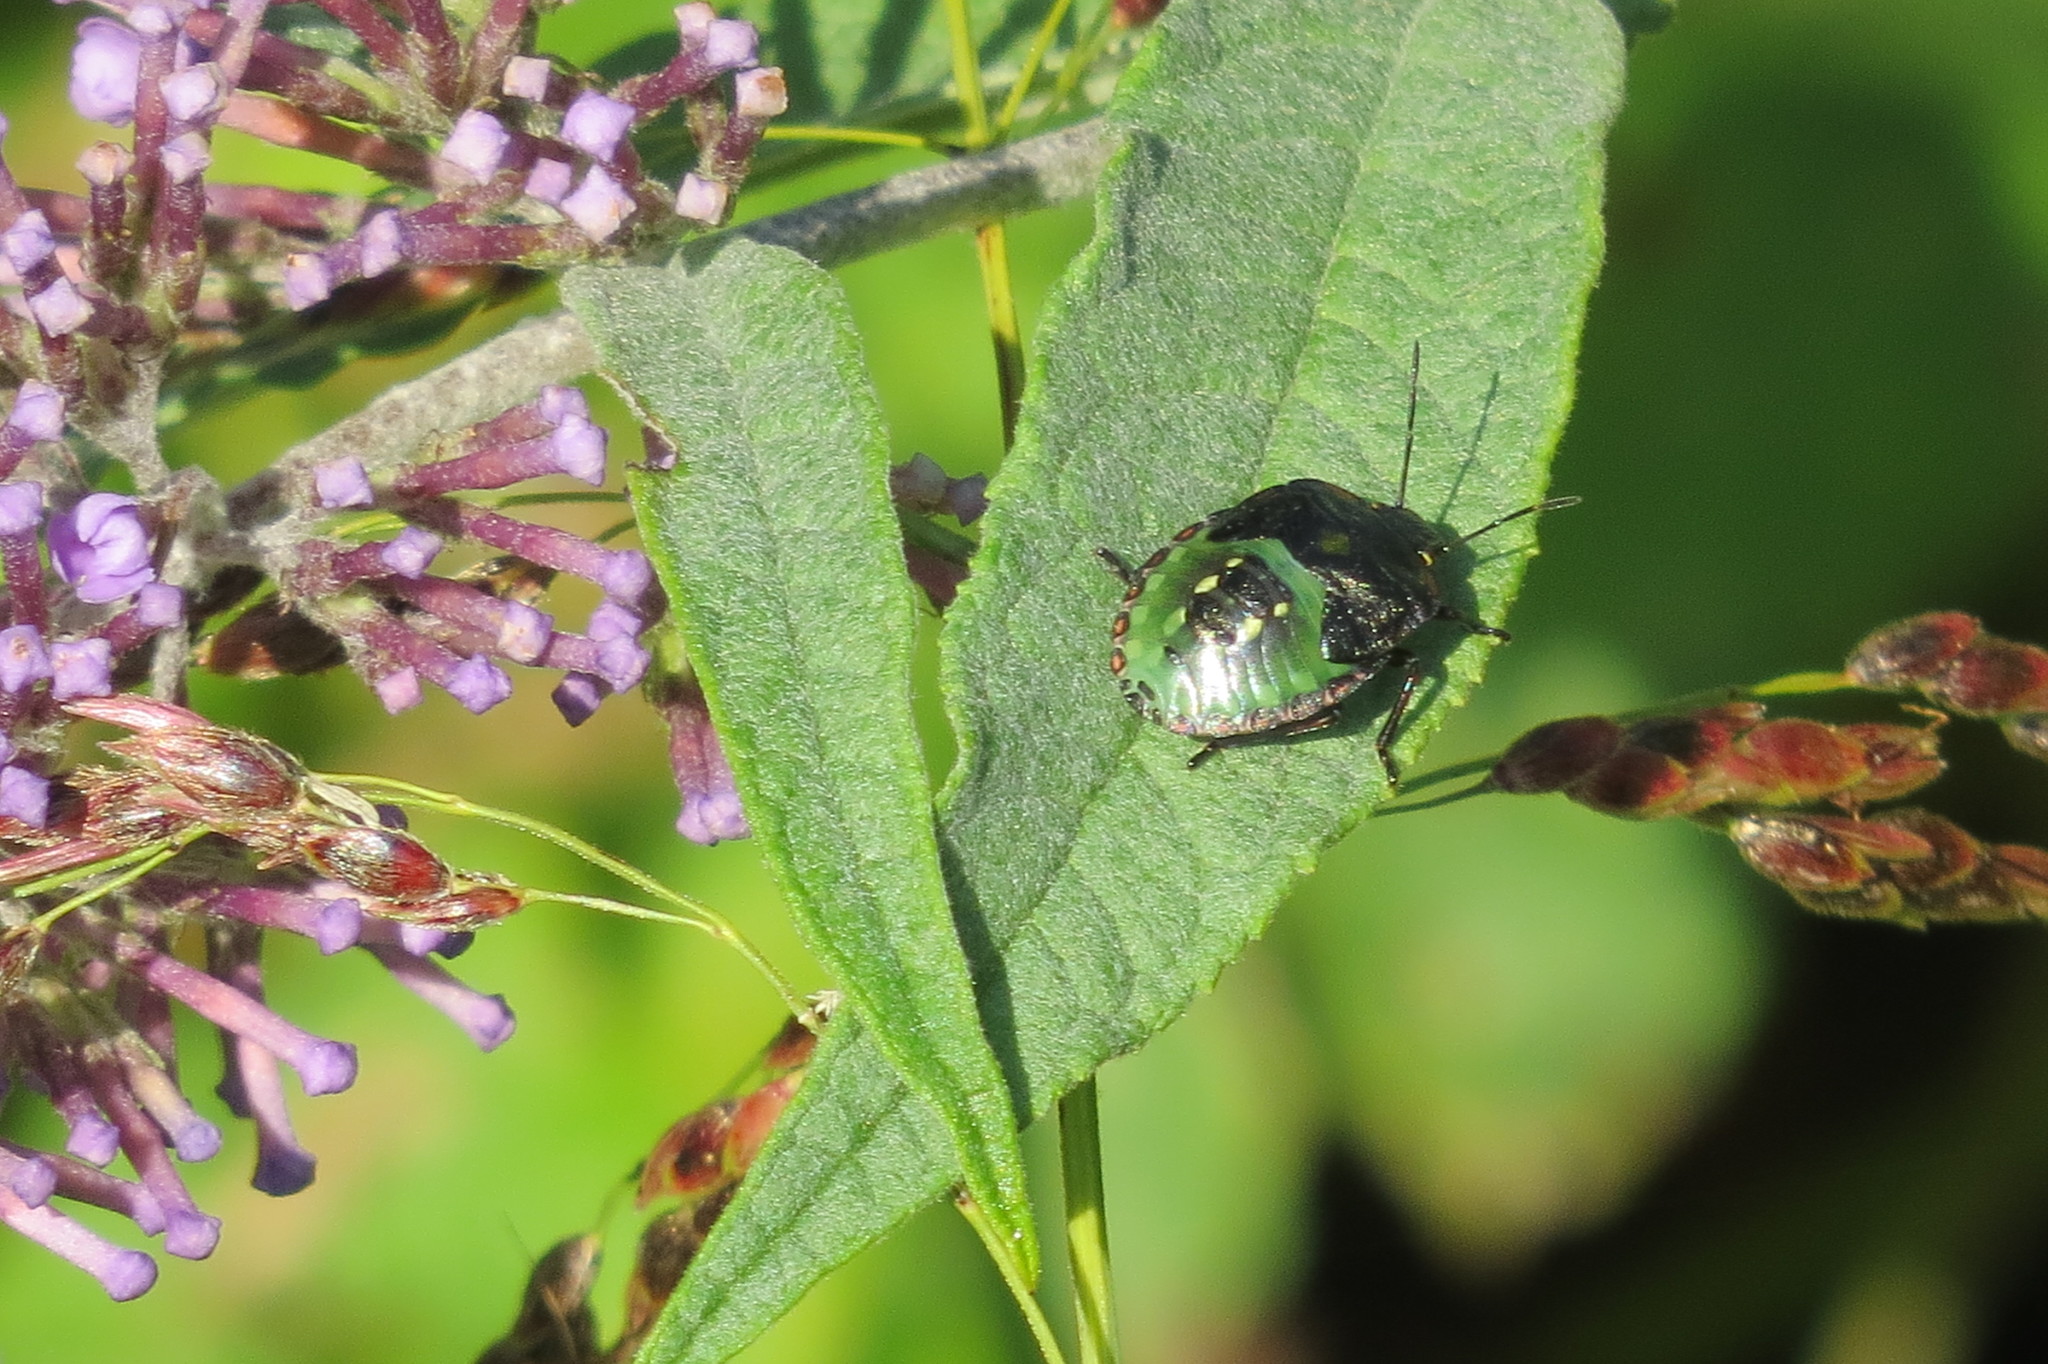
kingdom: Animalia
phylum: Arthropoda
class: Insecta
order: Hemiptera
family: Pentatomidae
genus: Nezara
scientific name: Nezara viridula
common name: Southern green stink bug
